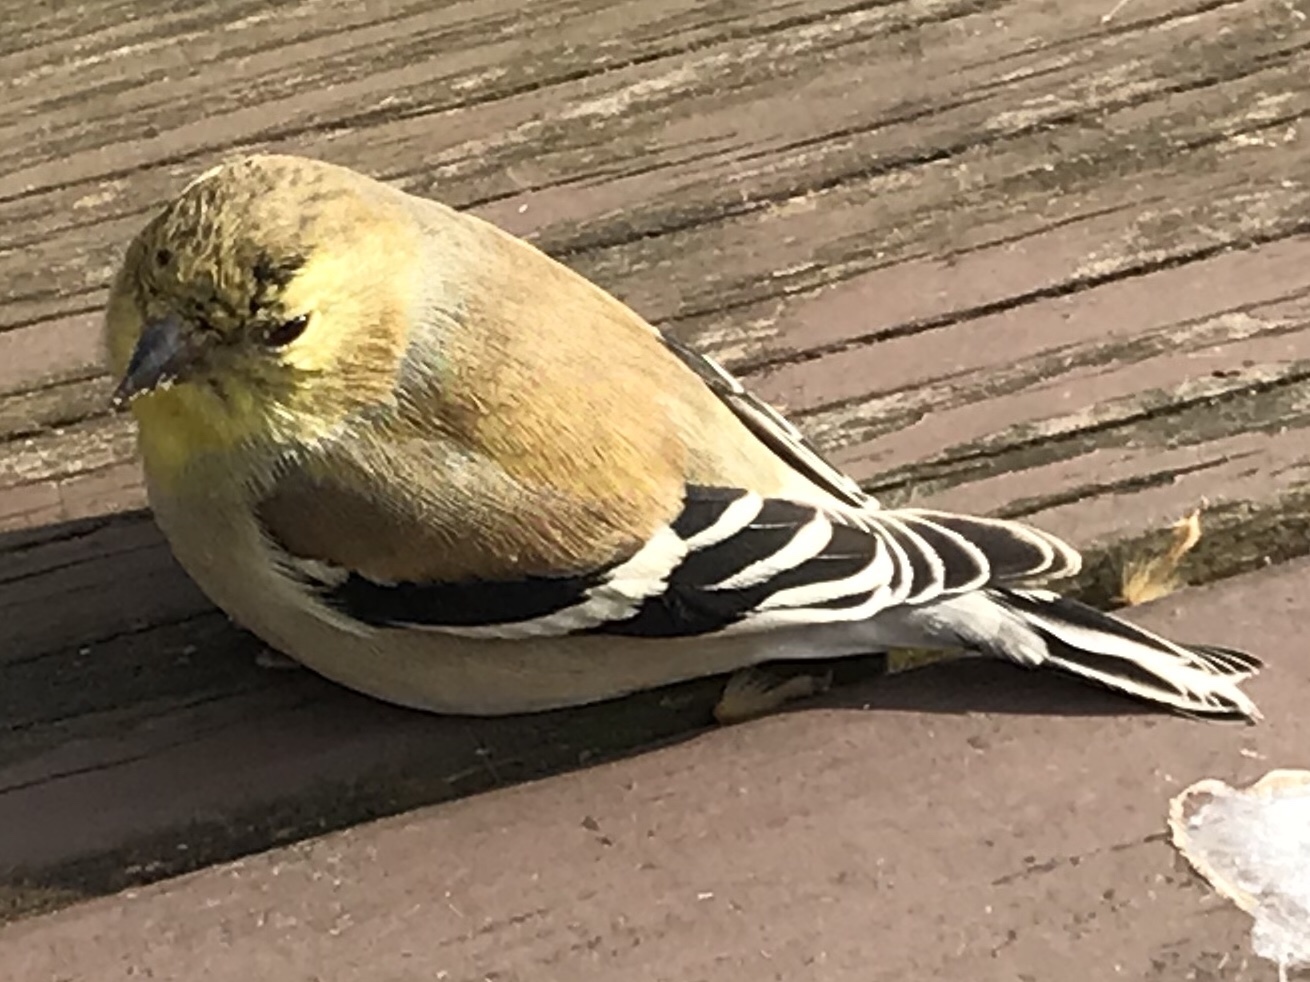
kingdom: Animalia
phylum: Chordata
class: Aves
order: Passeriformes
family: Fringillidae
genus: Spinus
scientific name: Spinus tristis
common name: American goldfinch
